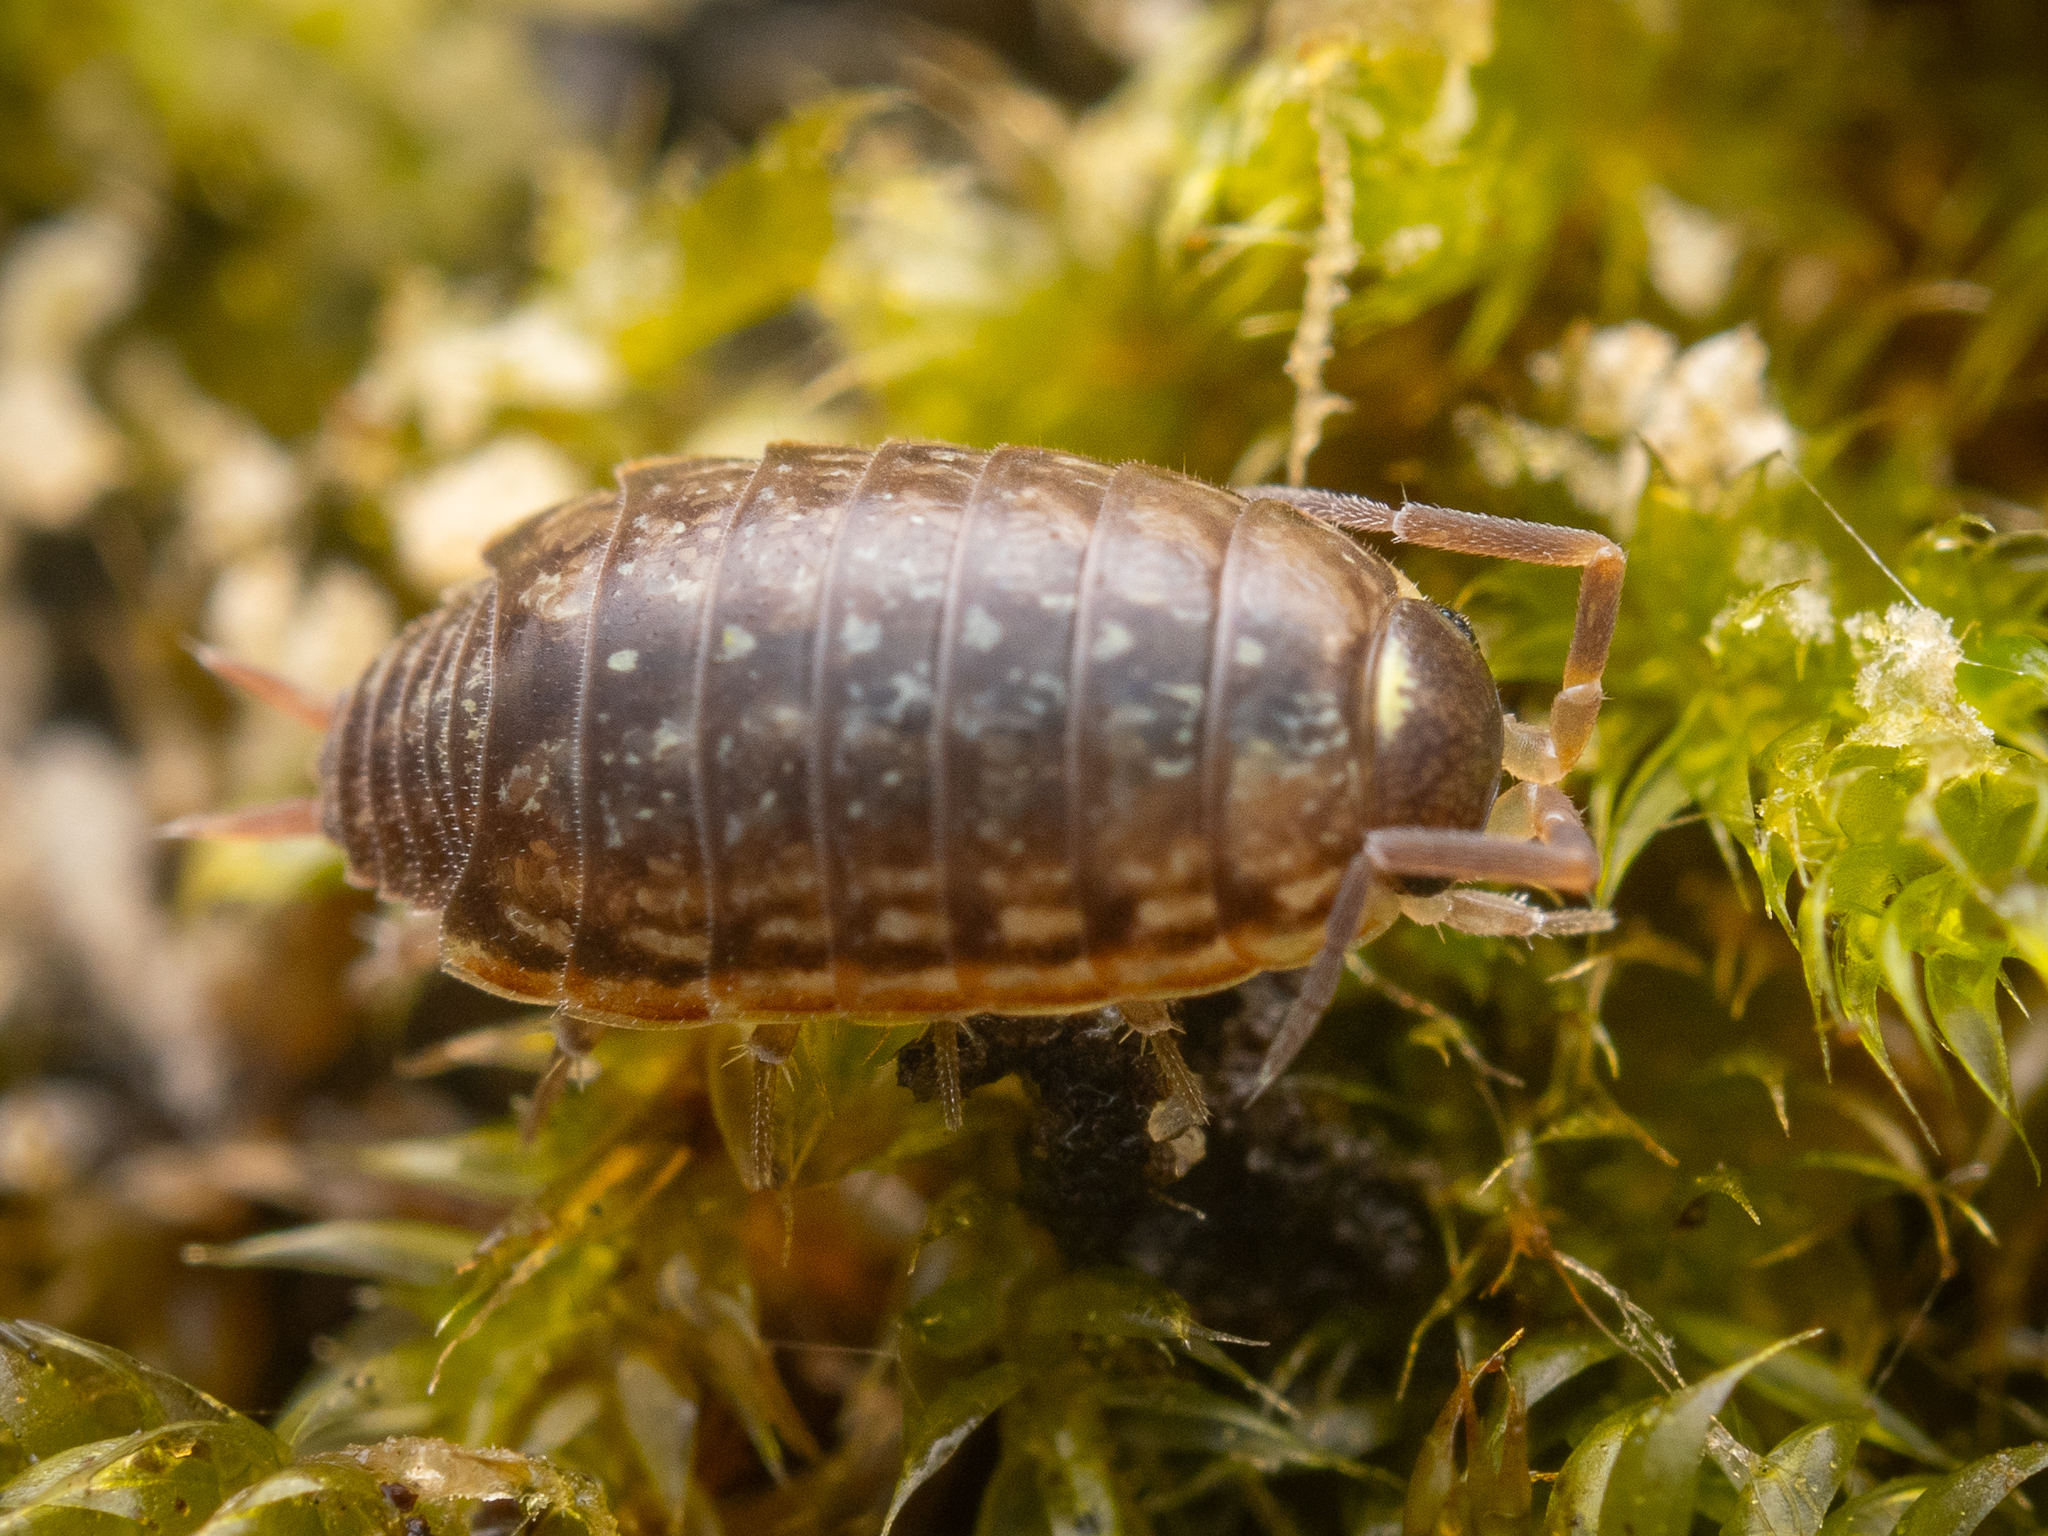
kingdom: Animalia
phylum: Arthropoda
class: Malacostraca
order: Isopoda
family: Philosciidae
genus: Philoscia
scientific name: Philoscia muscorum
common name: Common striped woodlouse
